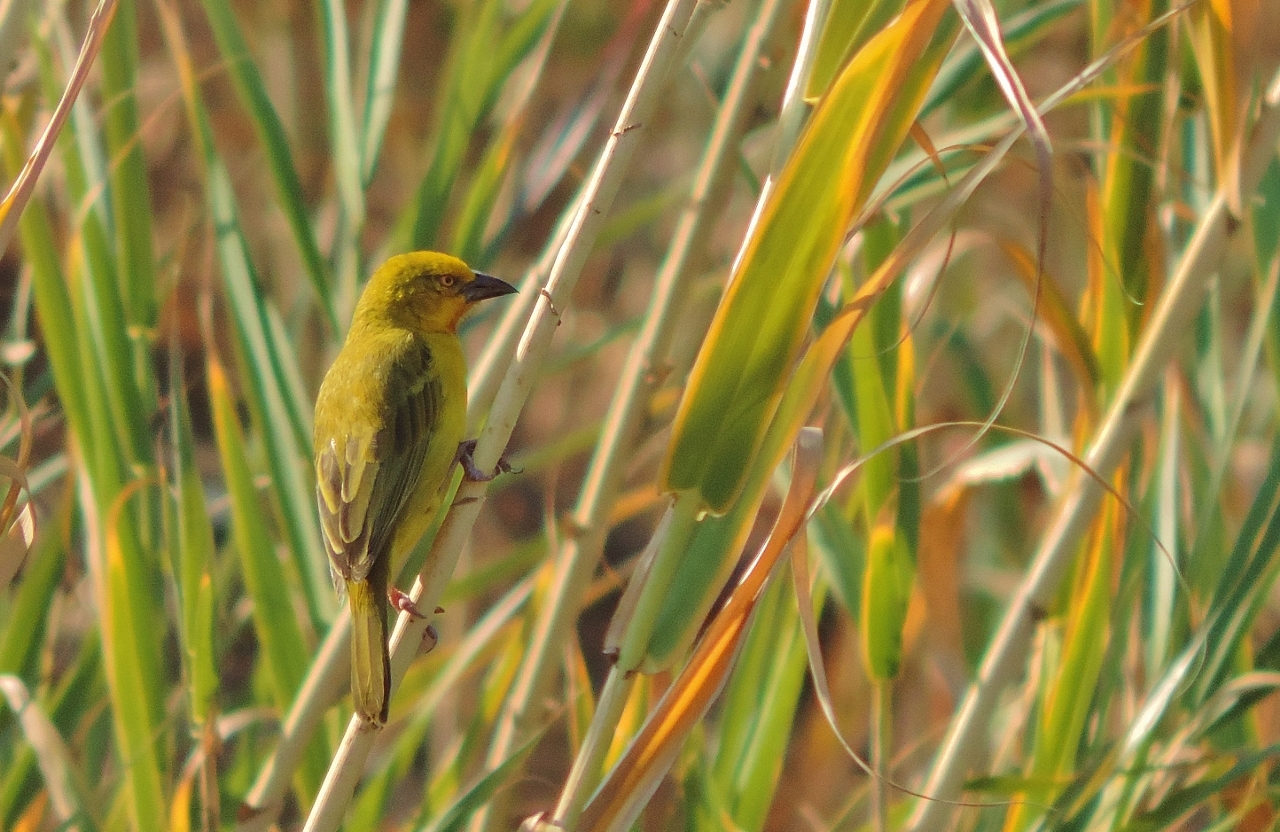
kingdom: Animalia
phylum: Chordata
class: Aves
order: Passeriformes
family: Ploceidae
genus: Ploceus
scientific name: Ploceus xanthops
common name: Holub's golden weaver
